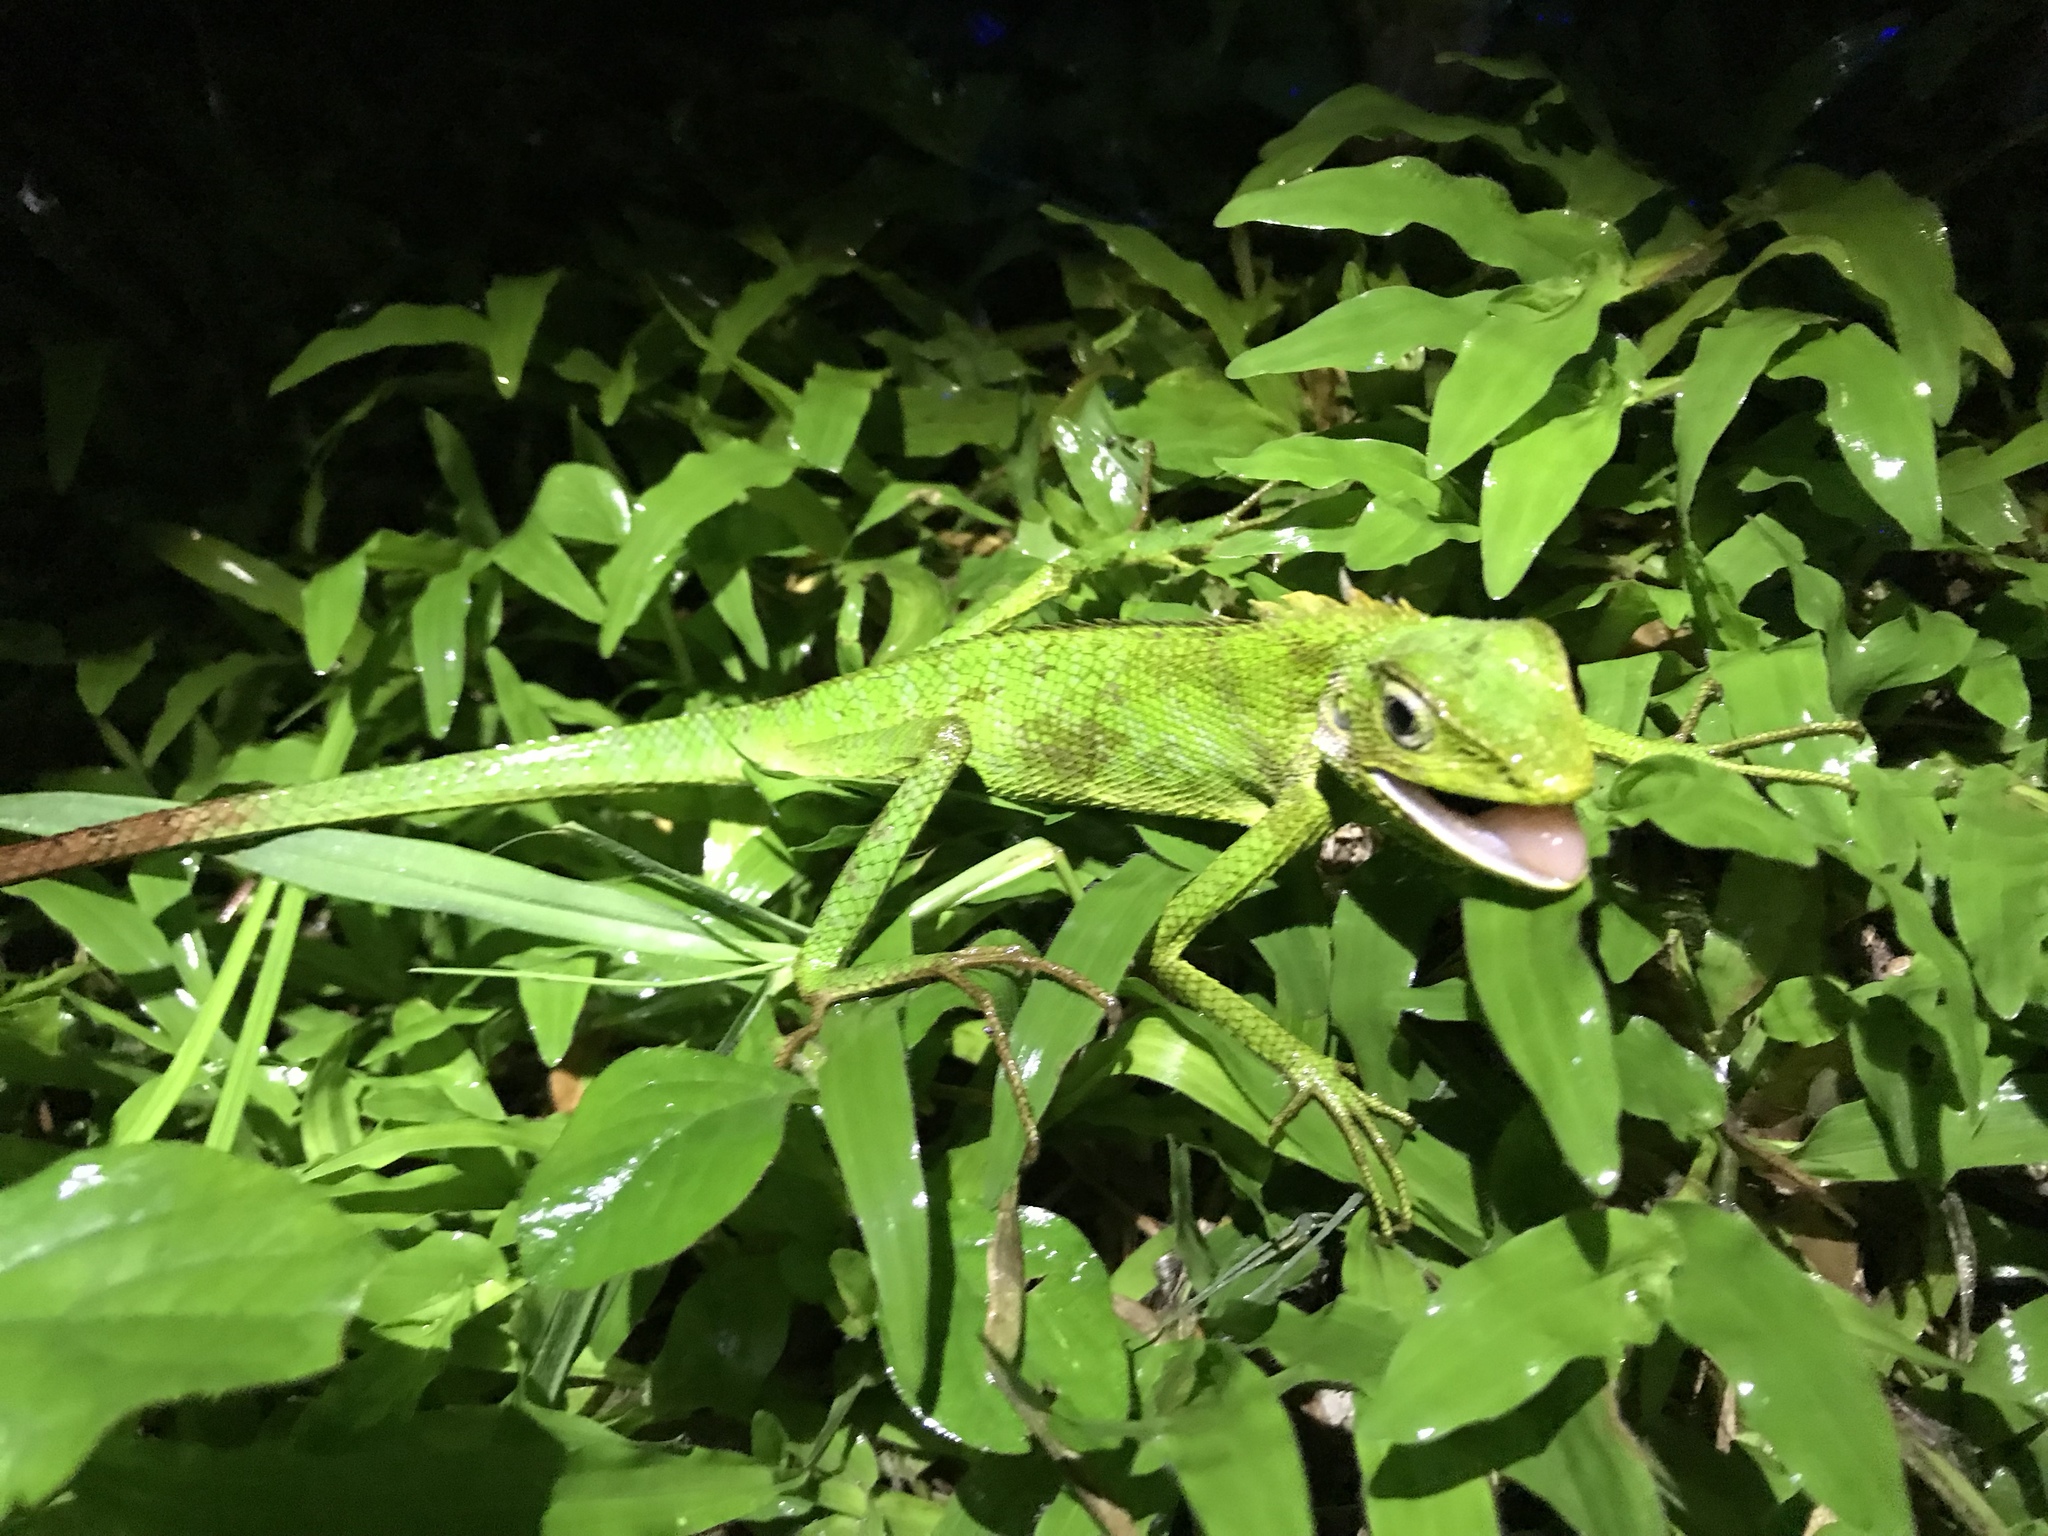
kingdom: Animalia
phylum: Chordata
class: Squamata
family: Agamidae
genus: Bronchocela
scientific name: Bronchocela jubata
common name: Maned forest lizard
